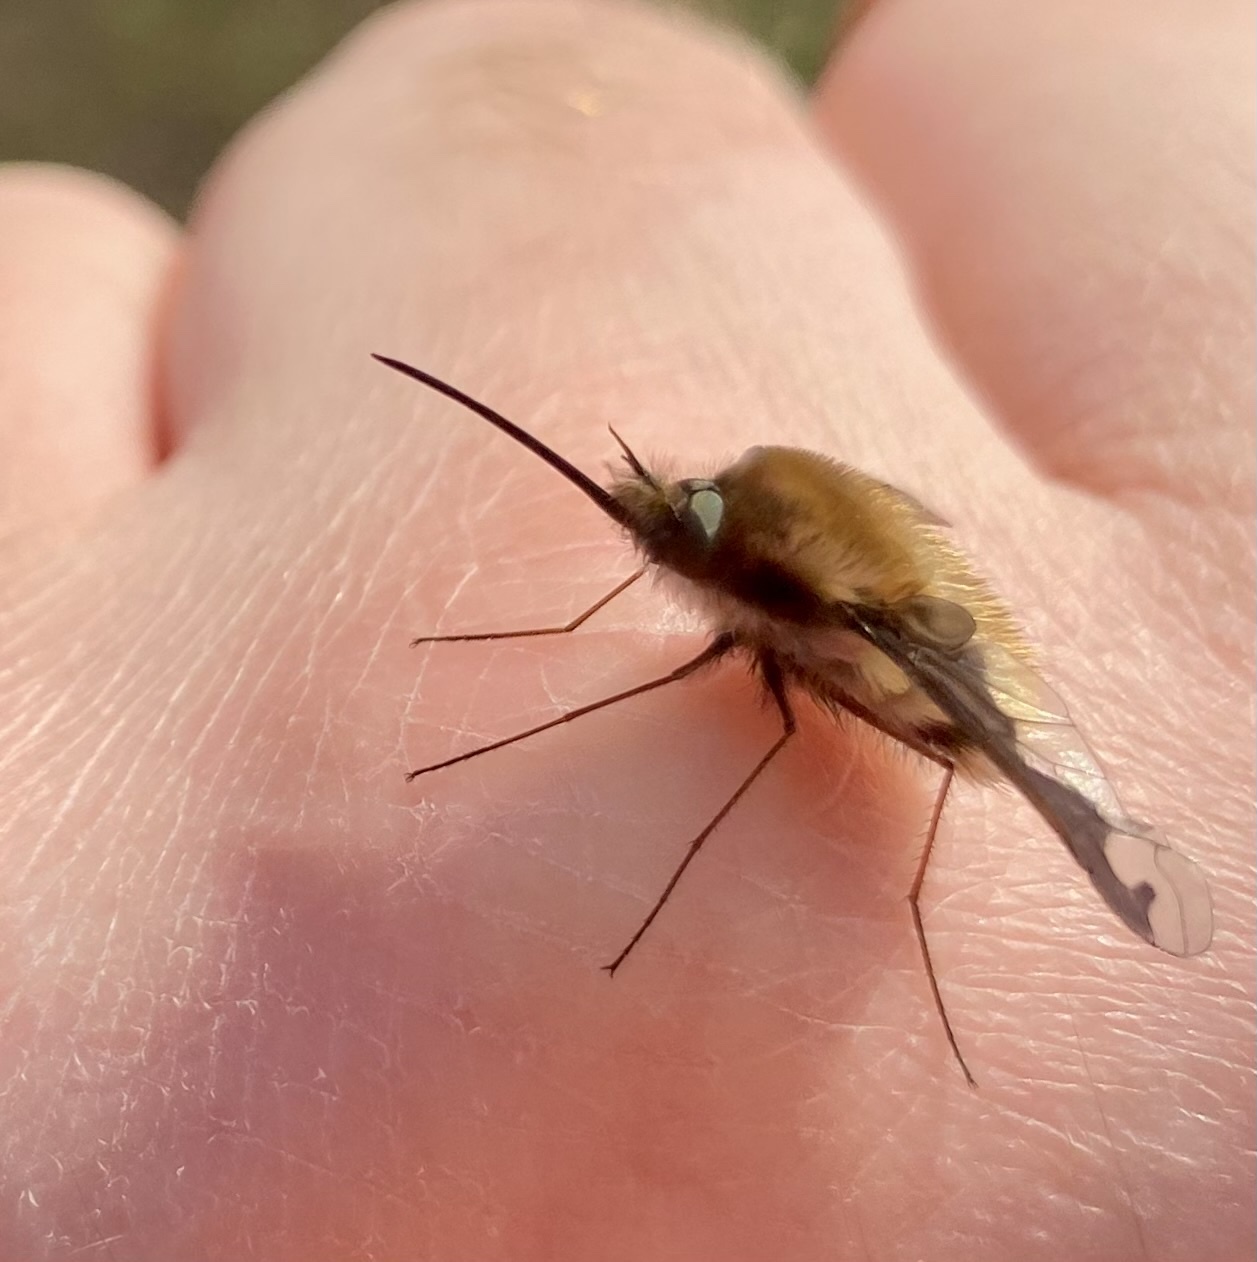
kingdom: Animalia
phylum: Arthropoda
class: Insecta
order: Diptera
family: Bombyliidae
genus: Bombylius
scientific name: Bombylius major
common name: Bee fly
